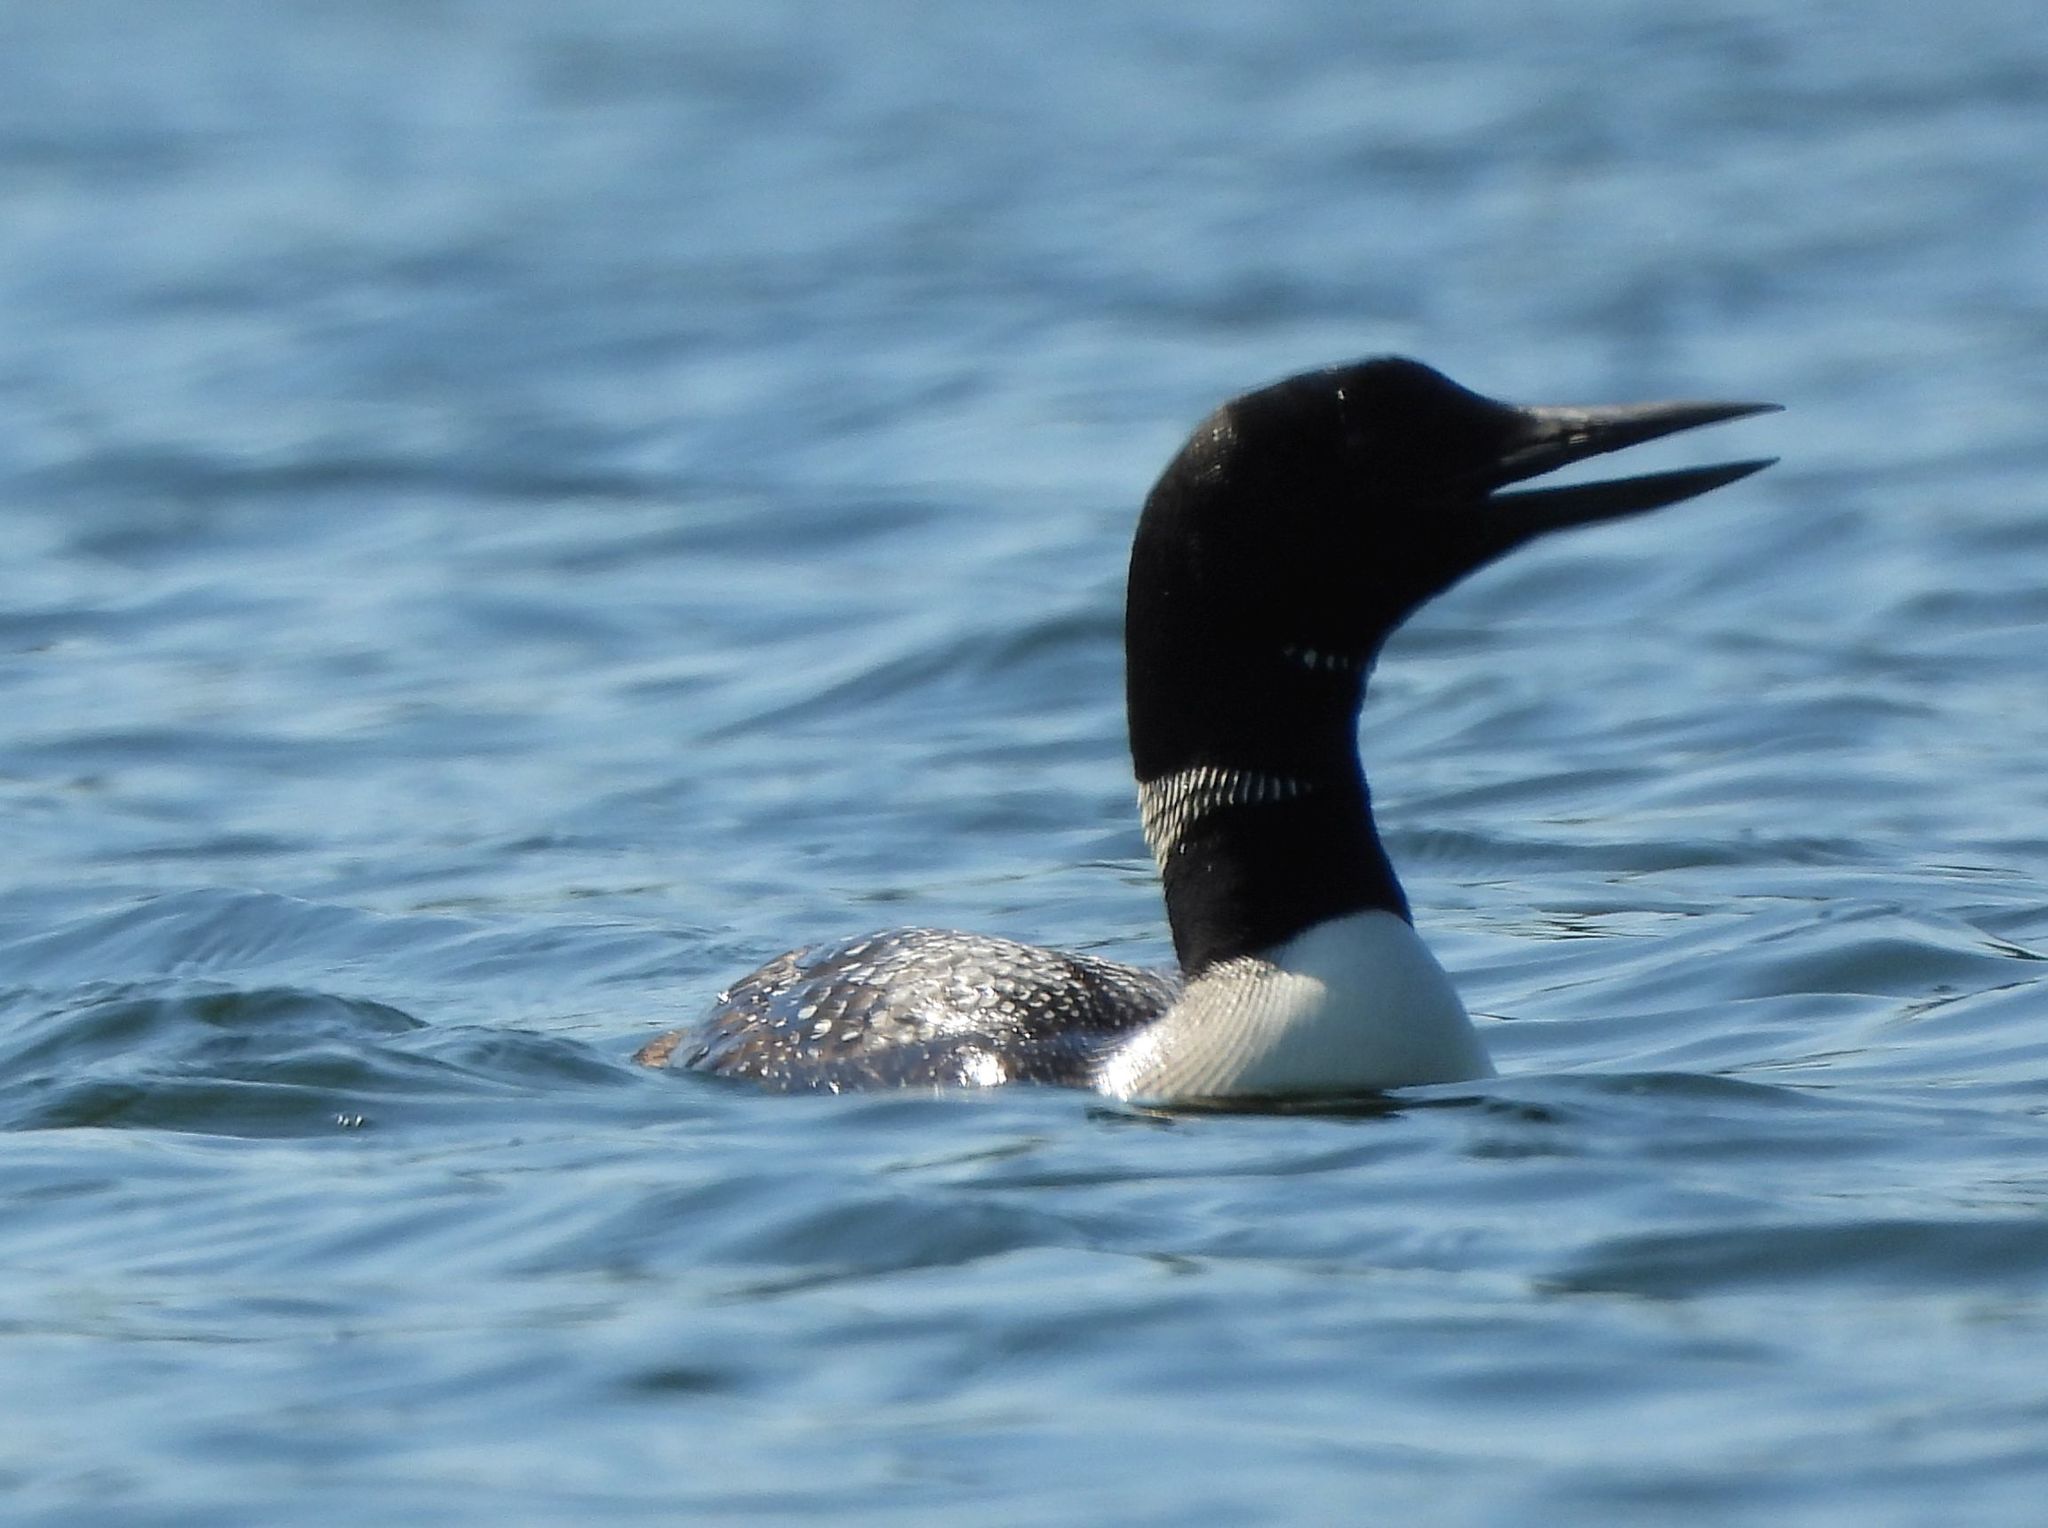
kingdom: Animalia
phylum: Chordata
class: Aves
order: Gaviiformes
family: Gaviidae
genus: Gavia
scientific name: Gavia immer
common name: Common loon
